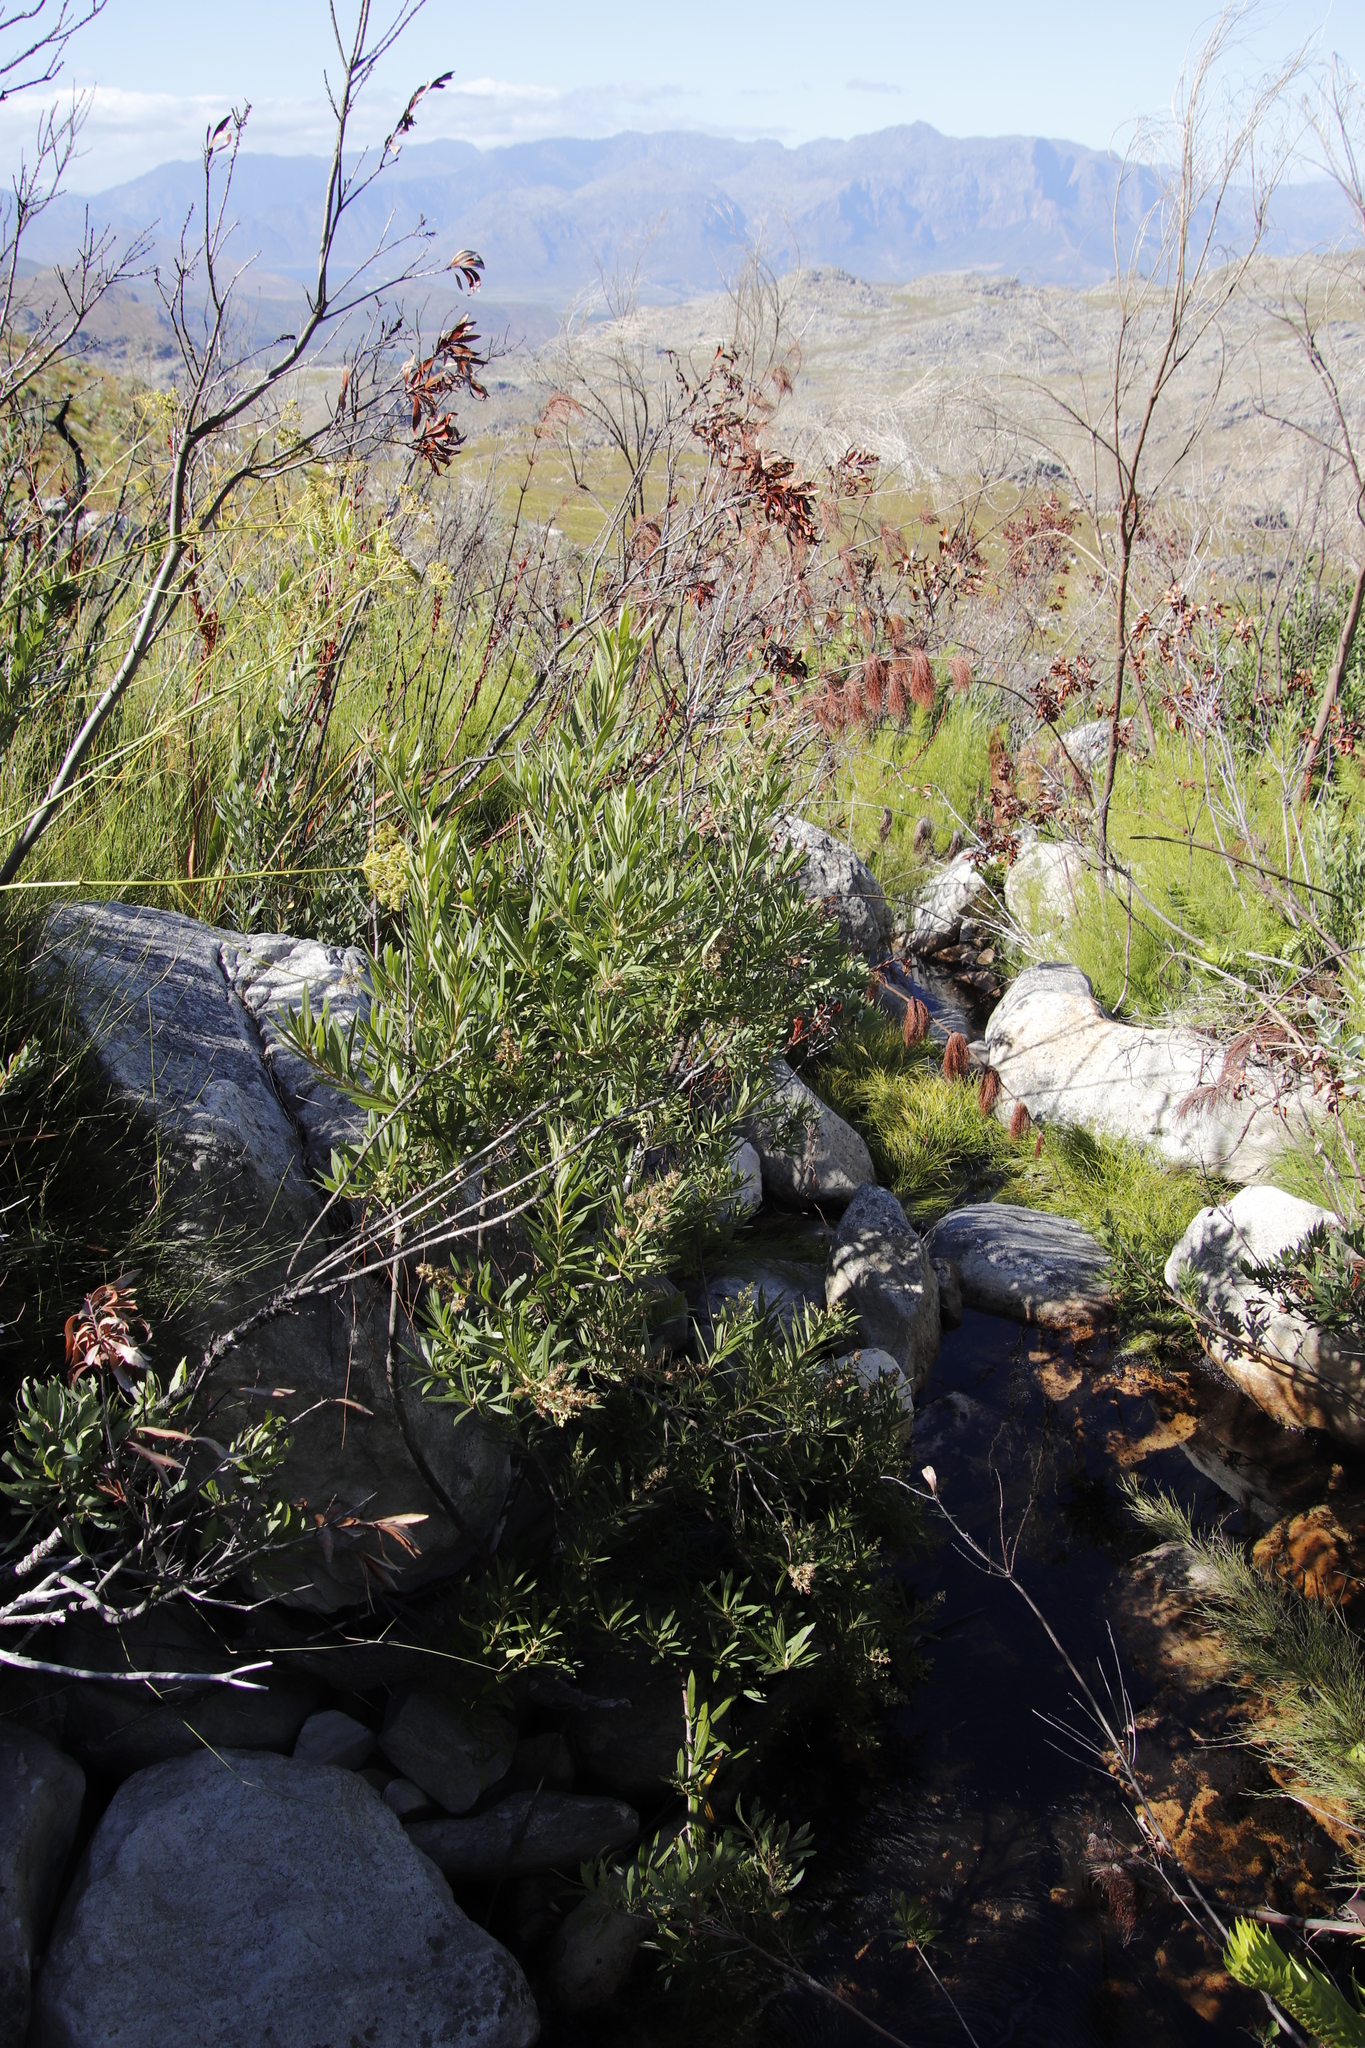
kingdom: Plantae
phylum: Tracheophyta
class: Magnoliopsida
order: Asterales
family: Asteraceae
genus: Brachylaena
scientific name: Brachylaena neriifolia
